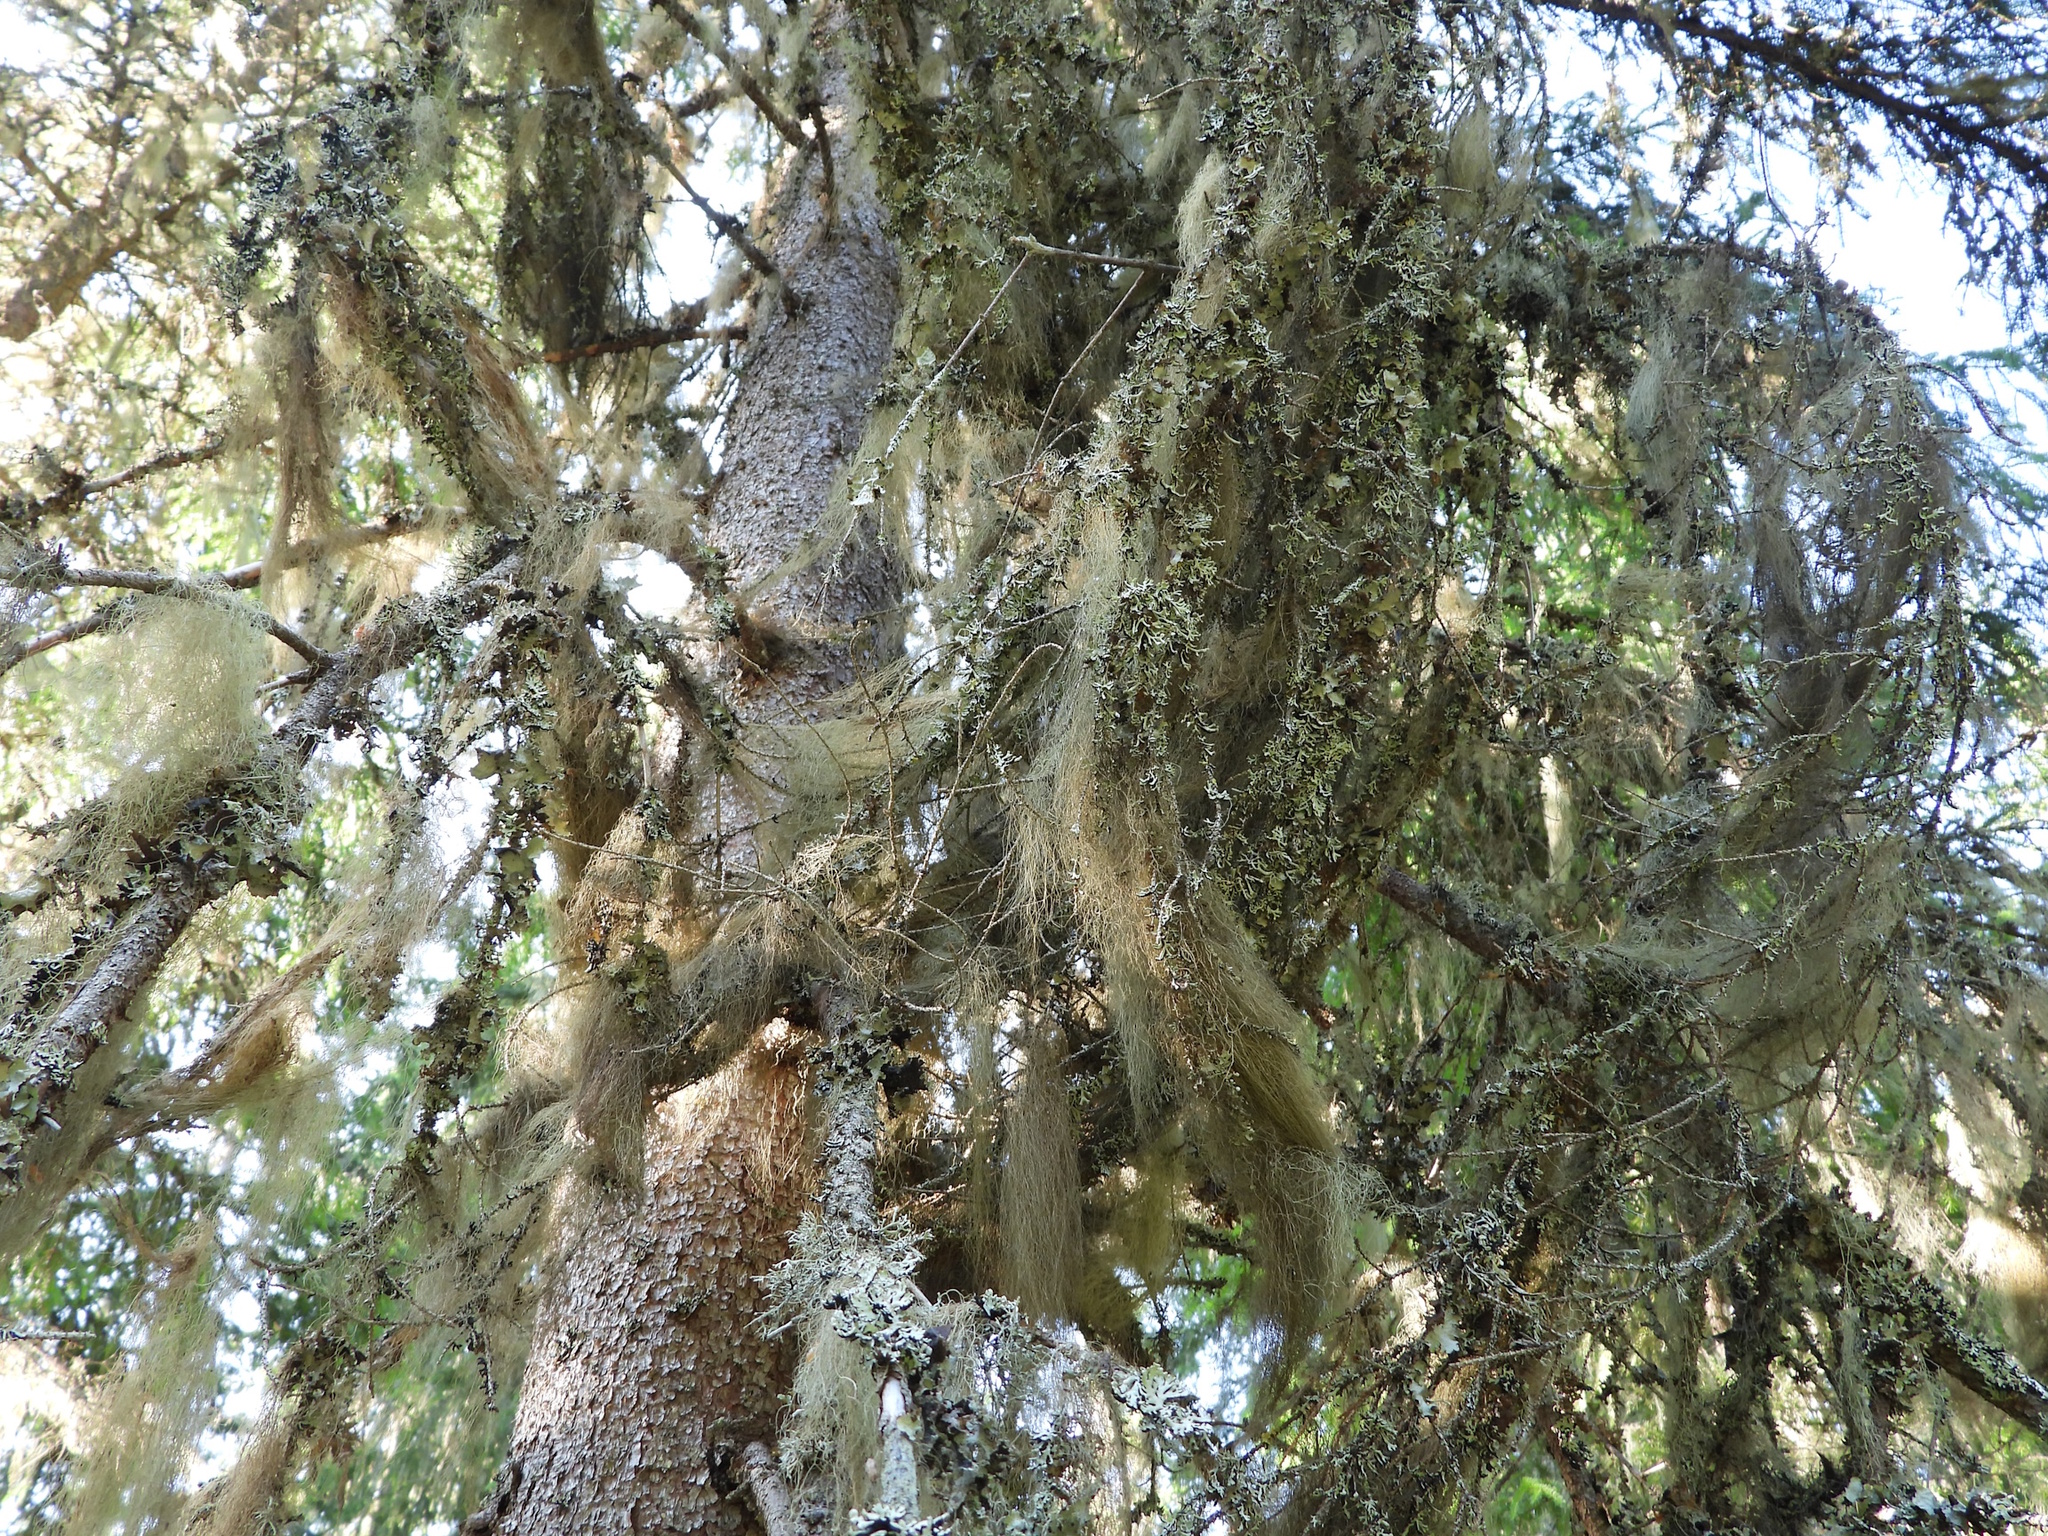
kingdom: Fungi
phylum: Ascomycota
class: Lecanoromycetes
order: Lecanorales
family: Parmeliaceae
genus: Bryoria
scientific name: Bryoria fuscescens
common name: Pale-footed horsehair lichen
